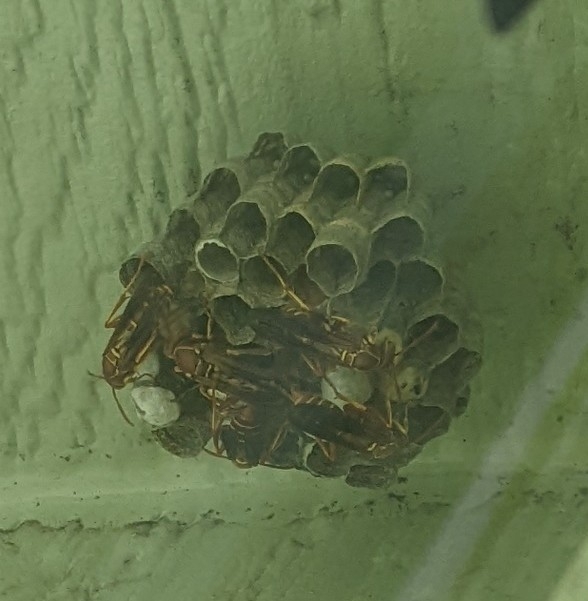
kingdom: Animalia
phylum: Arthropoda
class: Insecta
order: Hymenoptera
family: Vespidae
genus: Fuscopolistes
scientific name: Fuscopolistes
